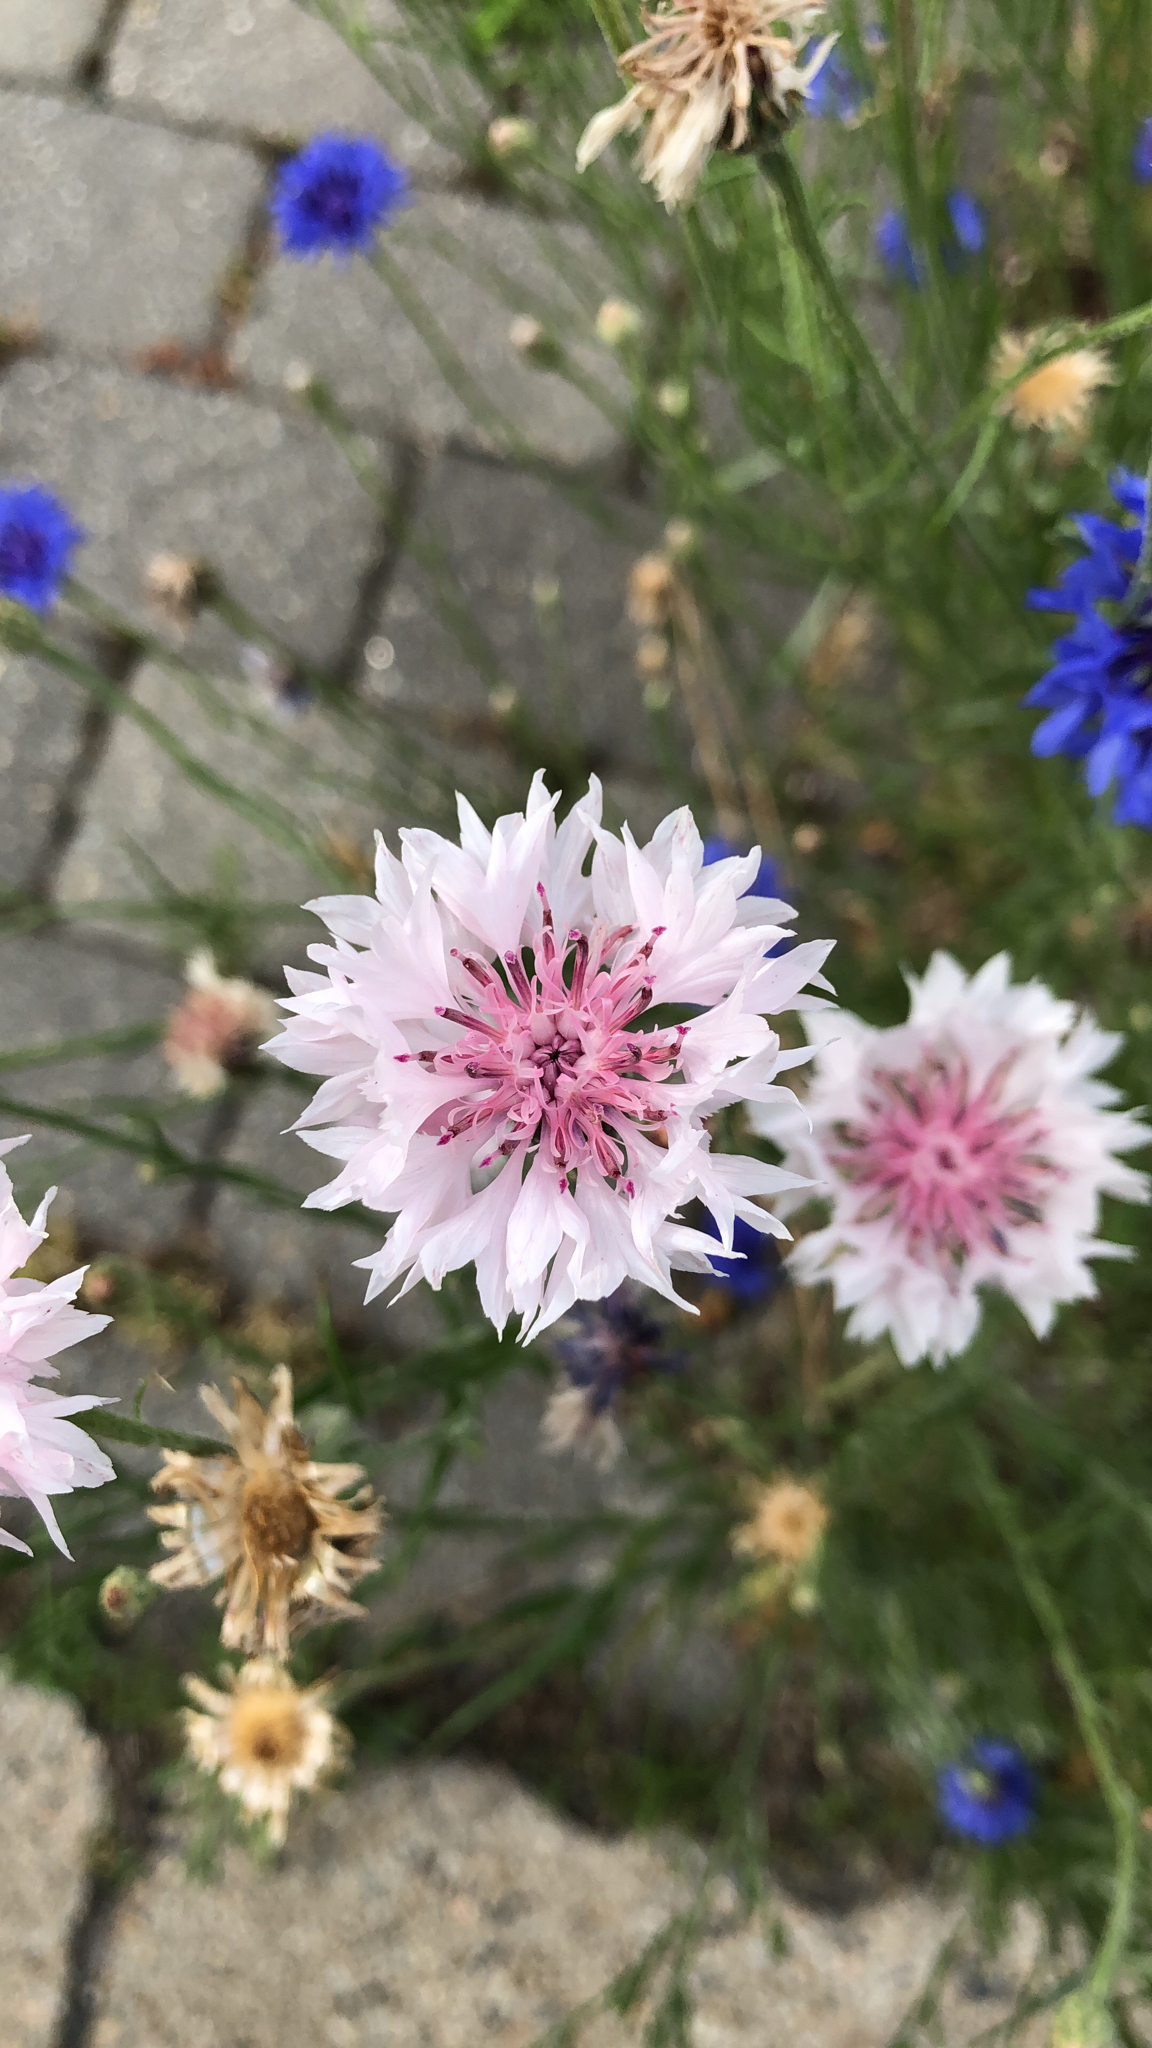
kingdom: Plantae
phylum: Tracheophyta
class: Magnoliopsida
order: Asterales
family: Asteraceae
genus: Centaurea
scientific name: Centaurea cyanus
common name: Cornflower
